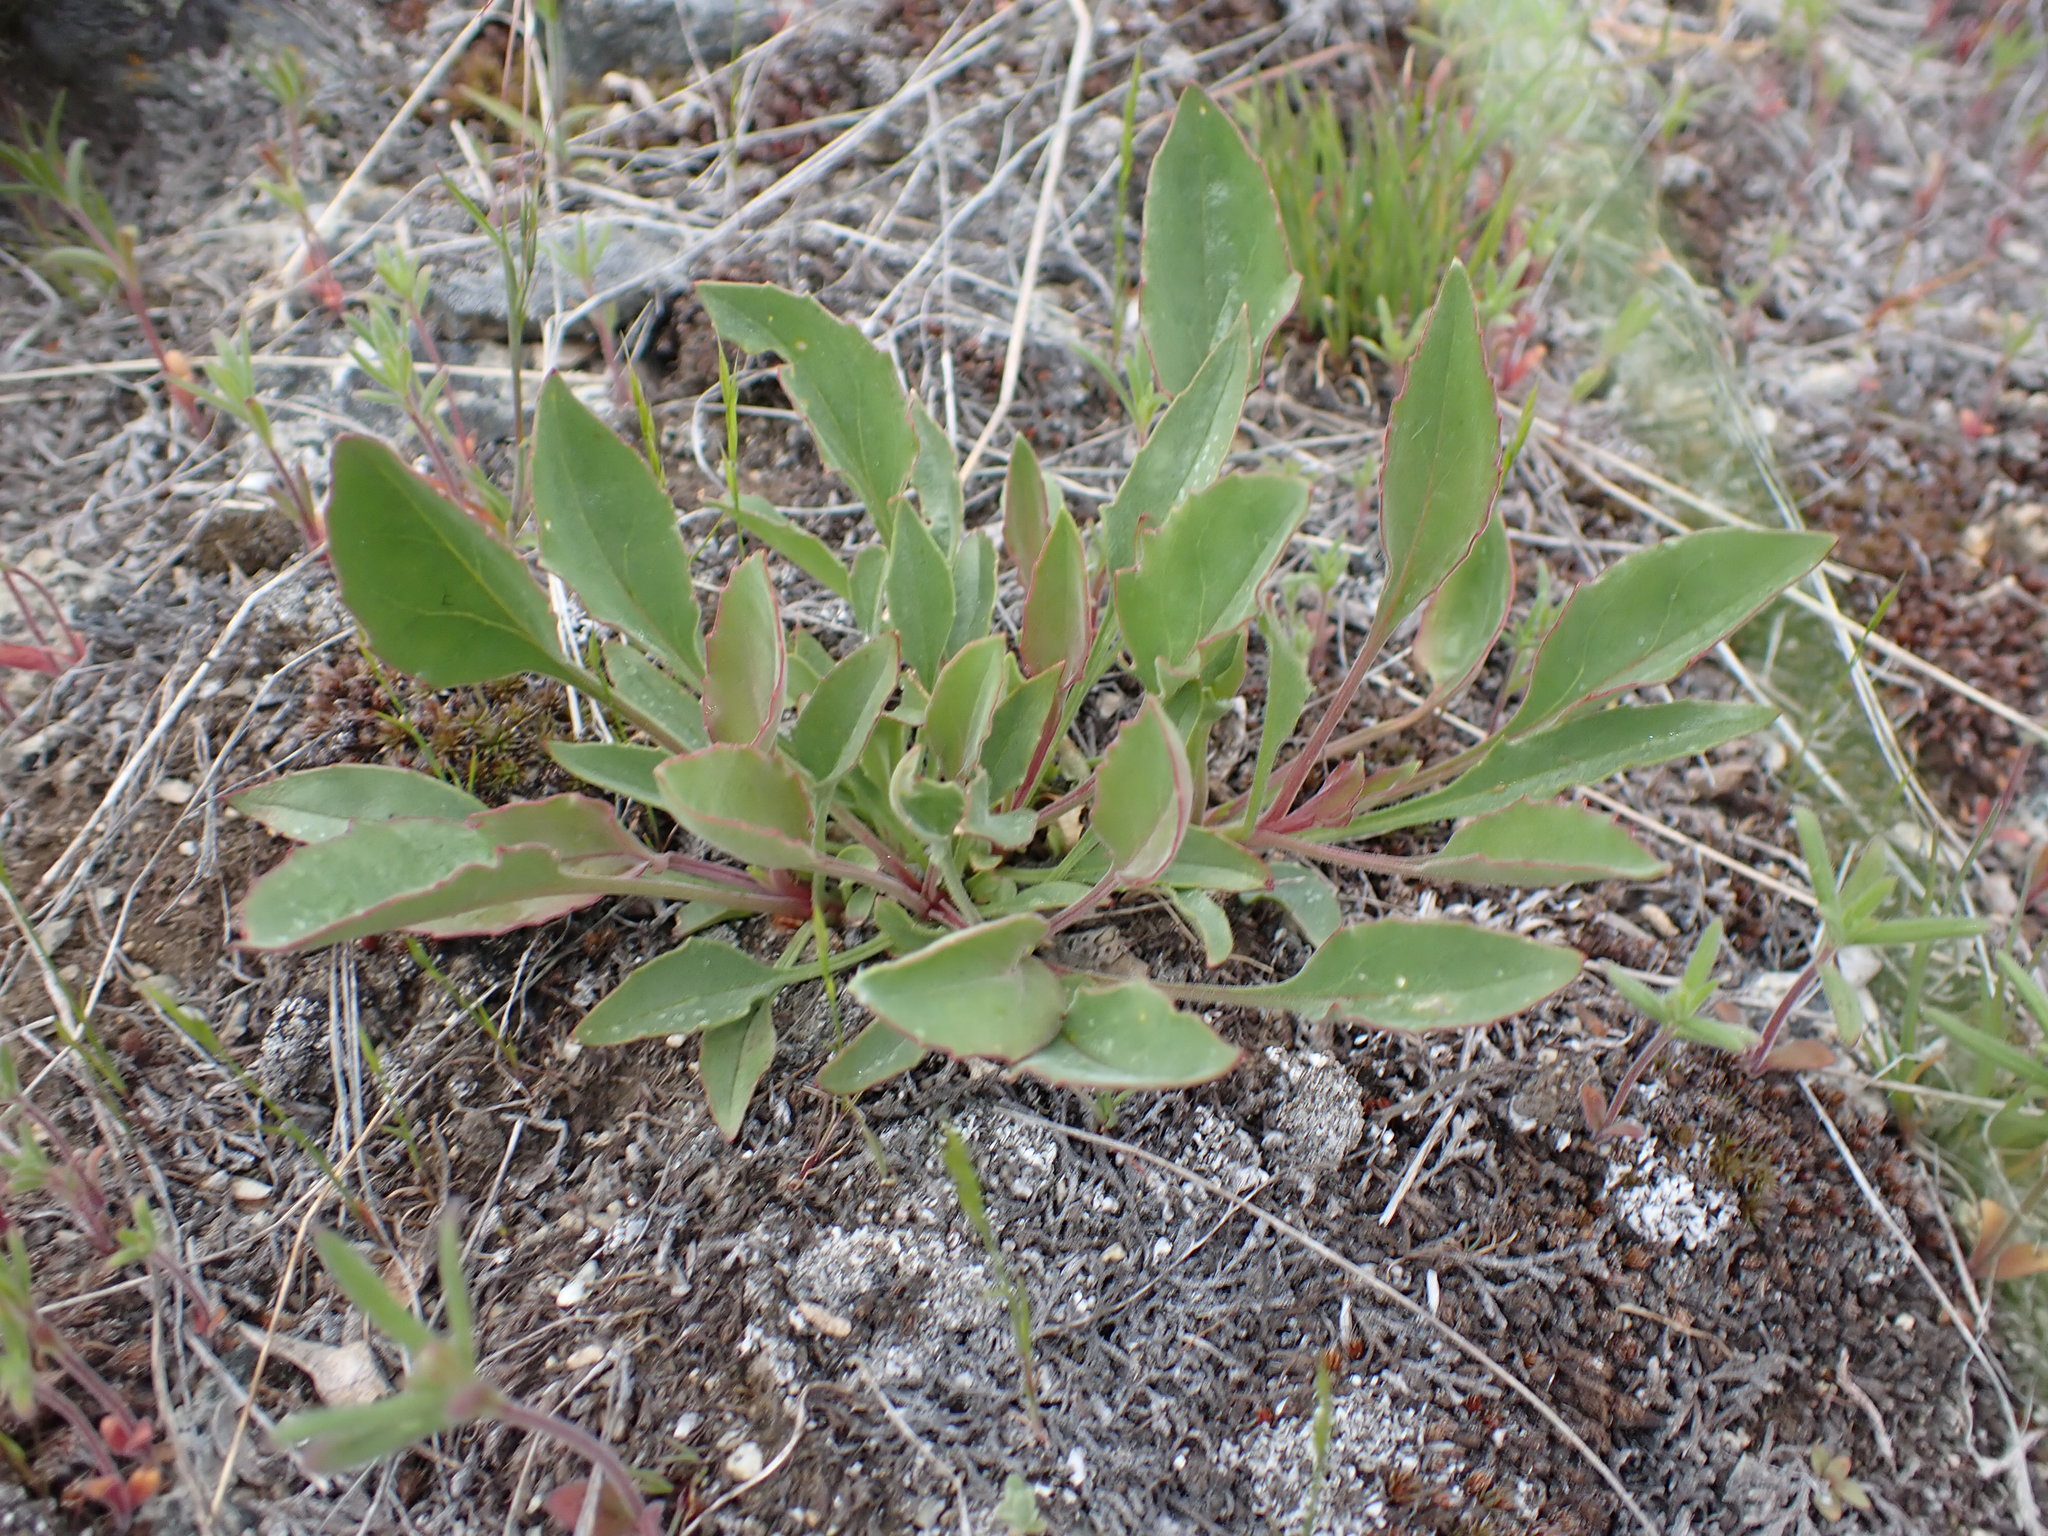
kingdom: Plantae
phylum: Tracheophyta
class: Magnoliopsida
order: Lamiales
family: Plantaginaceae
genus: Penstemon
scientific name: Penstemon pruinosus
